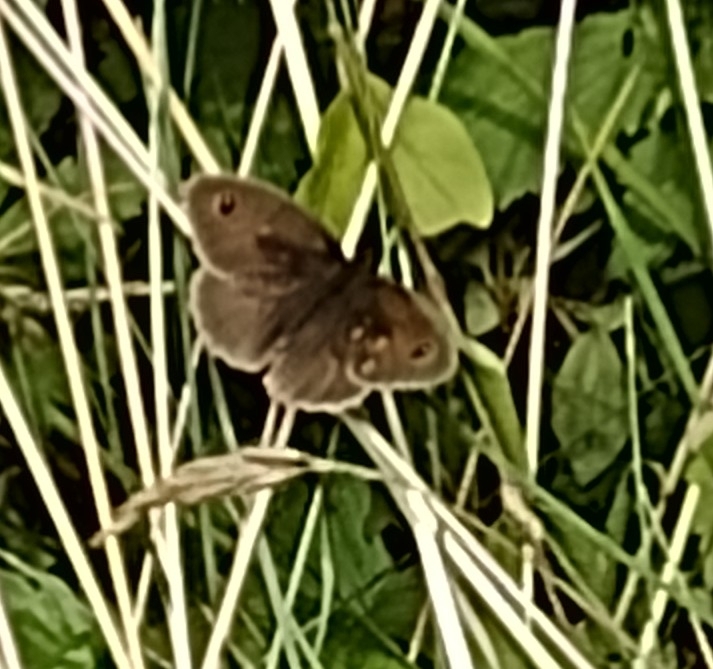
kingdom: Animalia
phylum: Arthropoda
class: Insecta
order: Lepidoptera
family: Nymphalidae
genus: Maniola
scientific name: Maniola jurtina
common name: Meadow brown
